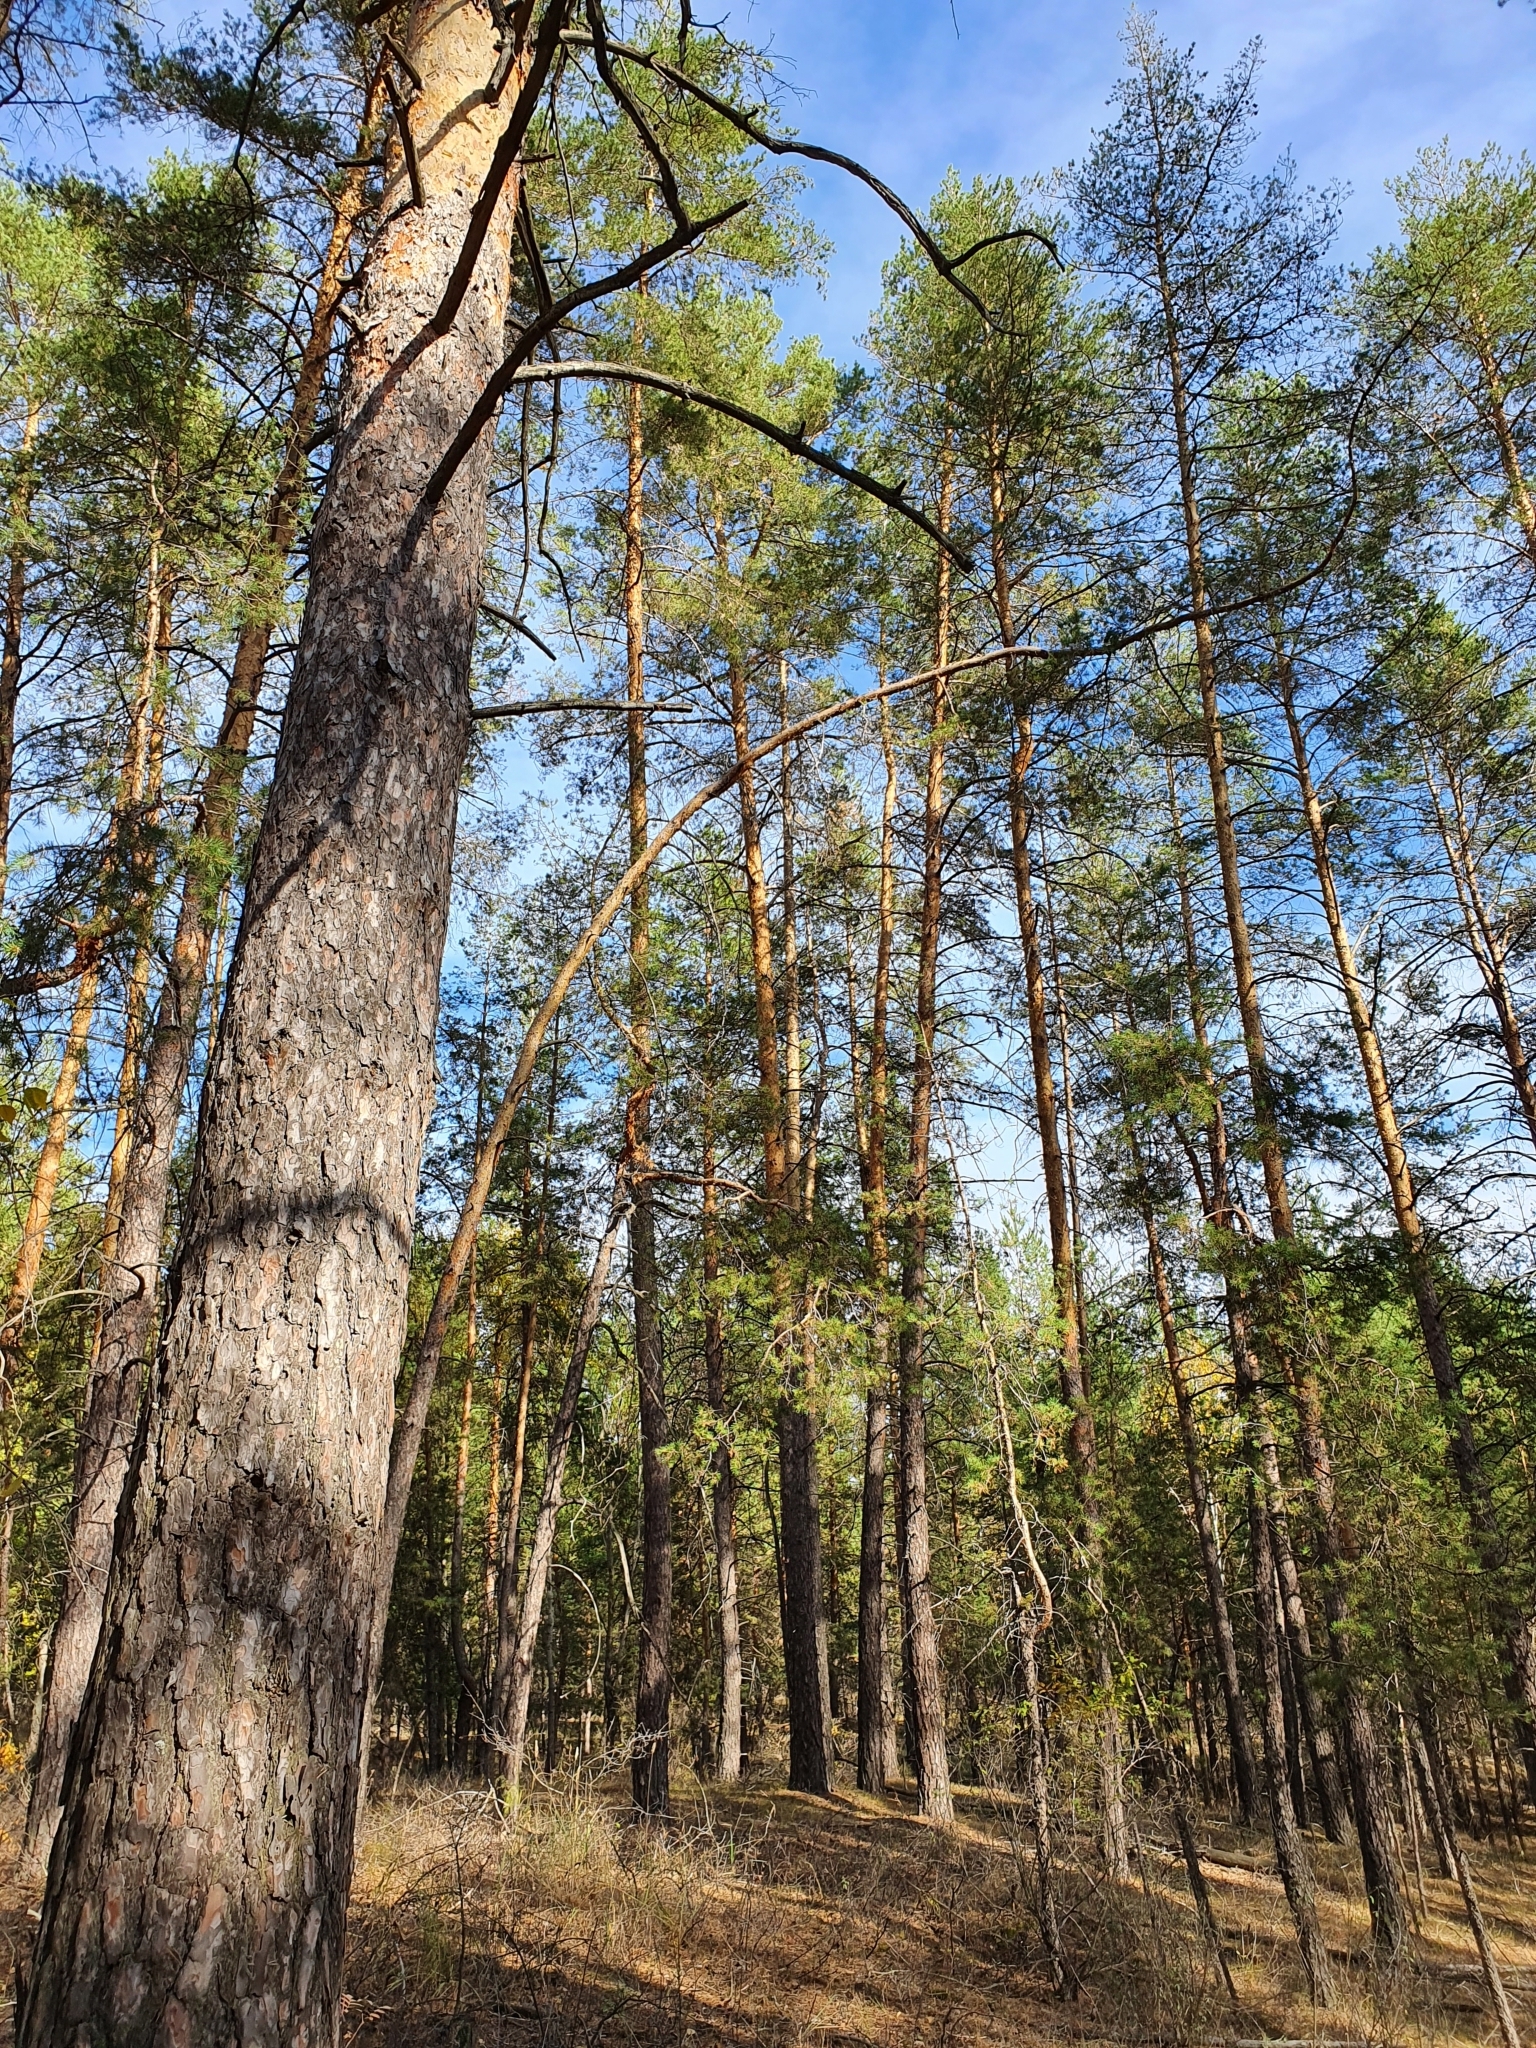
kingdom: Plantae
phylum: Tracheophyta
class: Pinopsida
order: Pinales
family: Pinaceae
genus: Pinus
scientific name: Pinus sylvestris
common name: Scots pine
